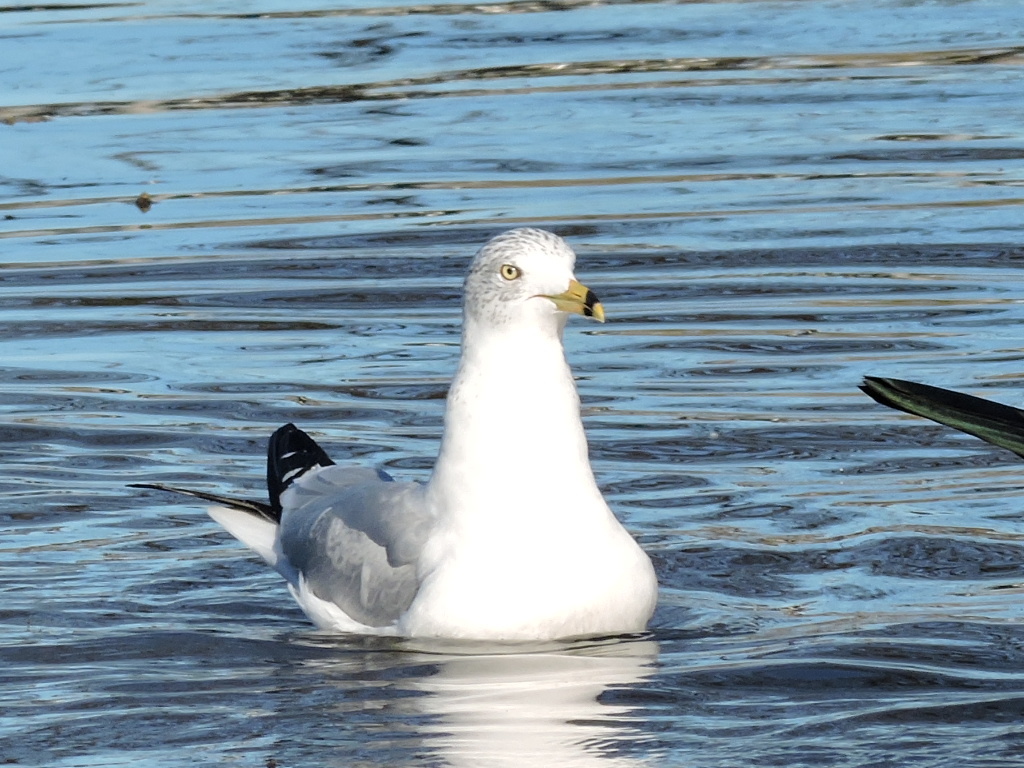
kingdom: Animalia
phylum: Chordata
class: Aves
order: Charadriiformes
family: Laridae
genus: Larus
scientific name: Larus delawarensis
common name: Ring-billed gull
